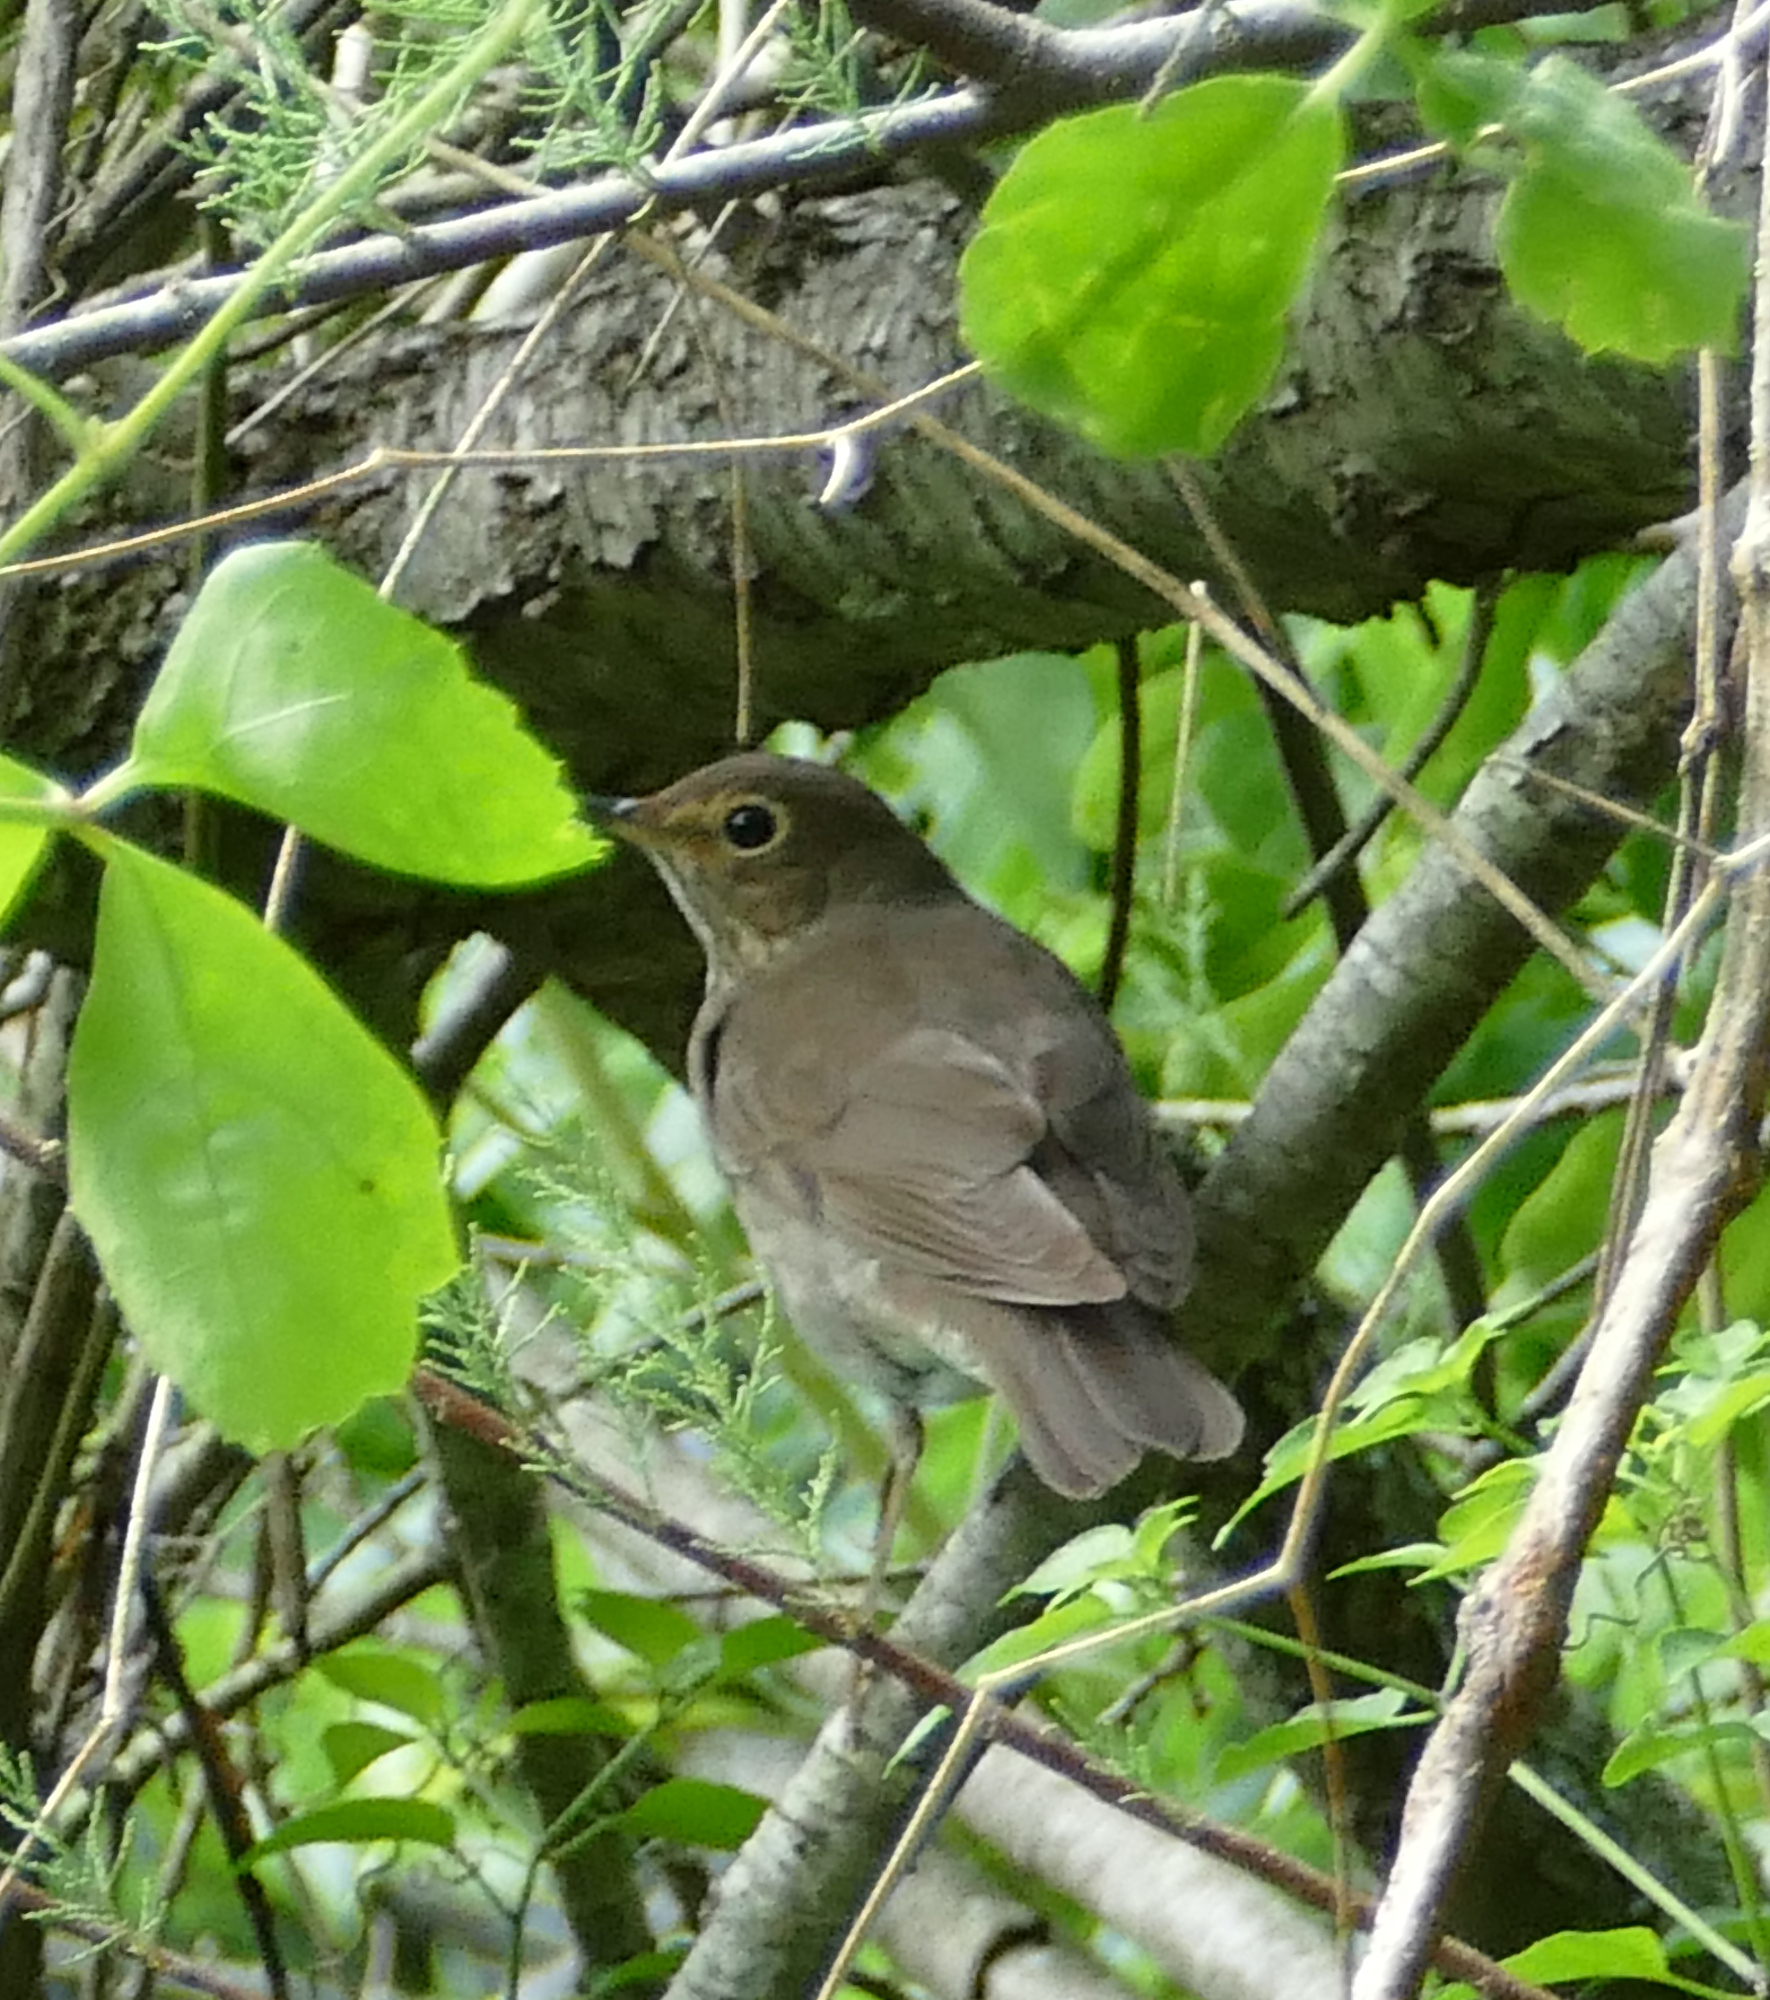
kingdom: Animalia
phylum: Chordata
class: Aves
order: Passeriformes
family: Turdidae
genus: Catharus
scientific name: Catharus ustulatus
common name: Swainson's thrush
